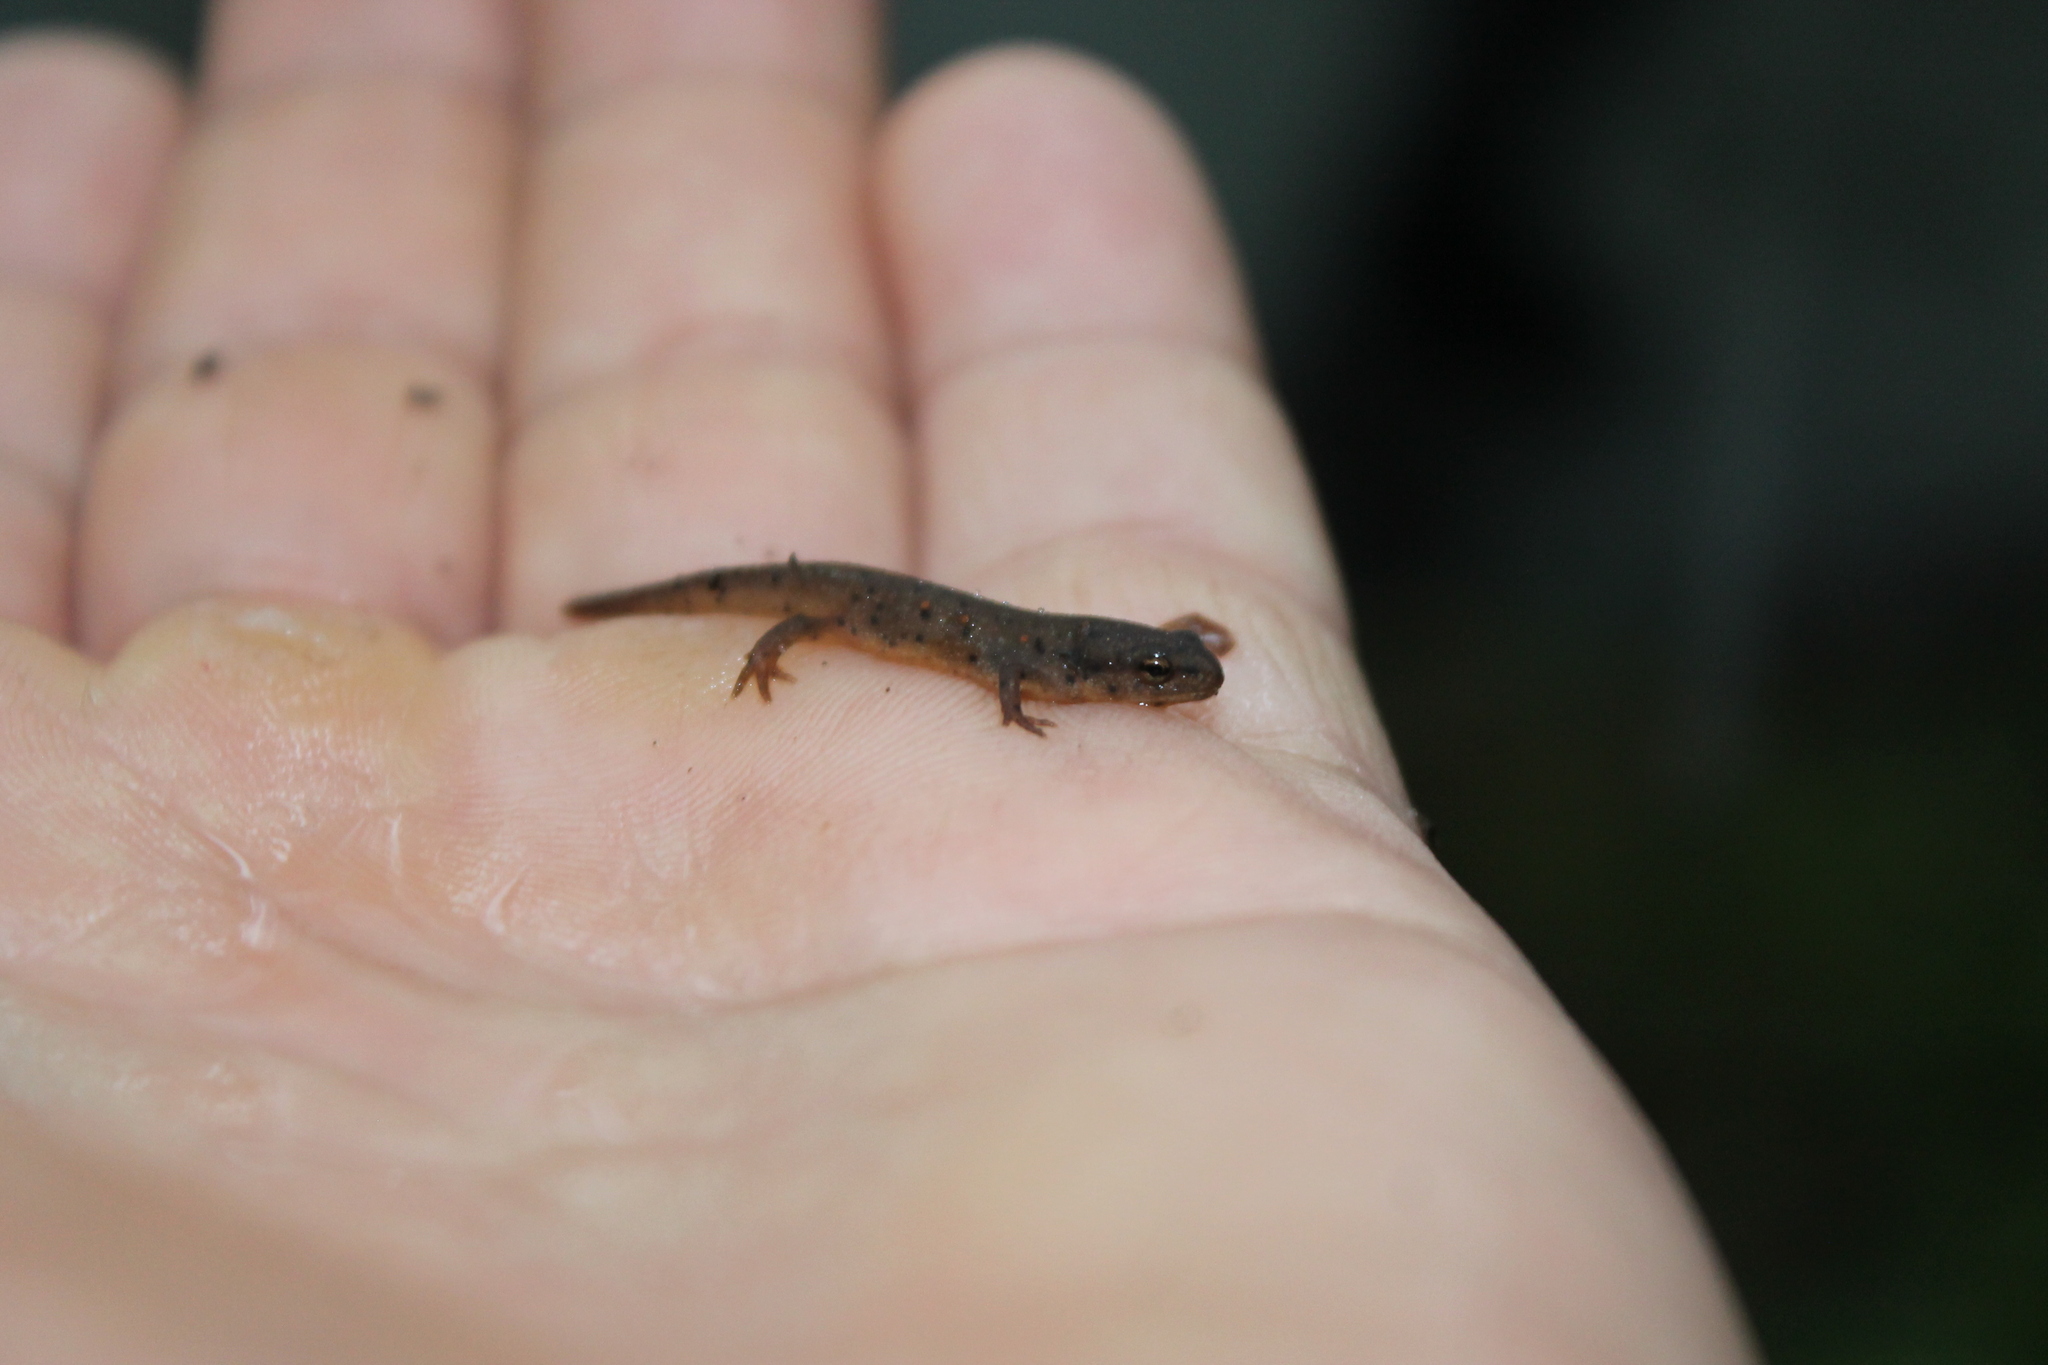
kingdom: Animalia
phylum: Chordata
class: Amphibia
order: Caudata
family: Salamandridae
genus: Notophthalmus
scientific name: Notophthalmus viridescens
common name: Eastern newt
